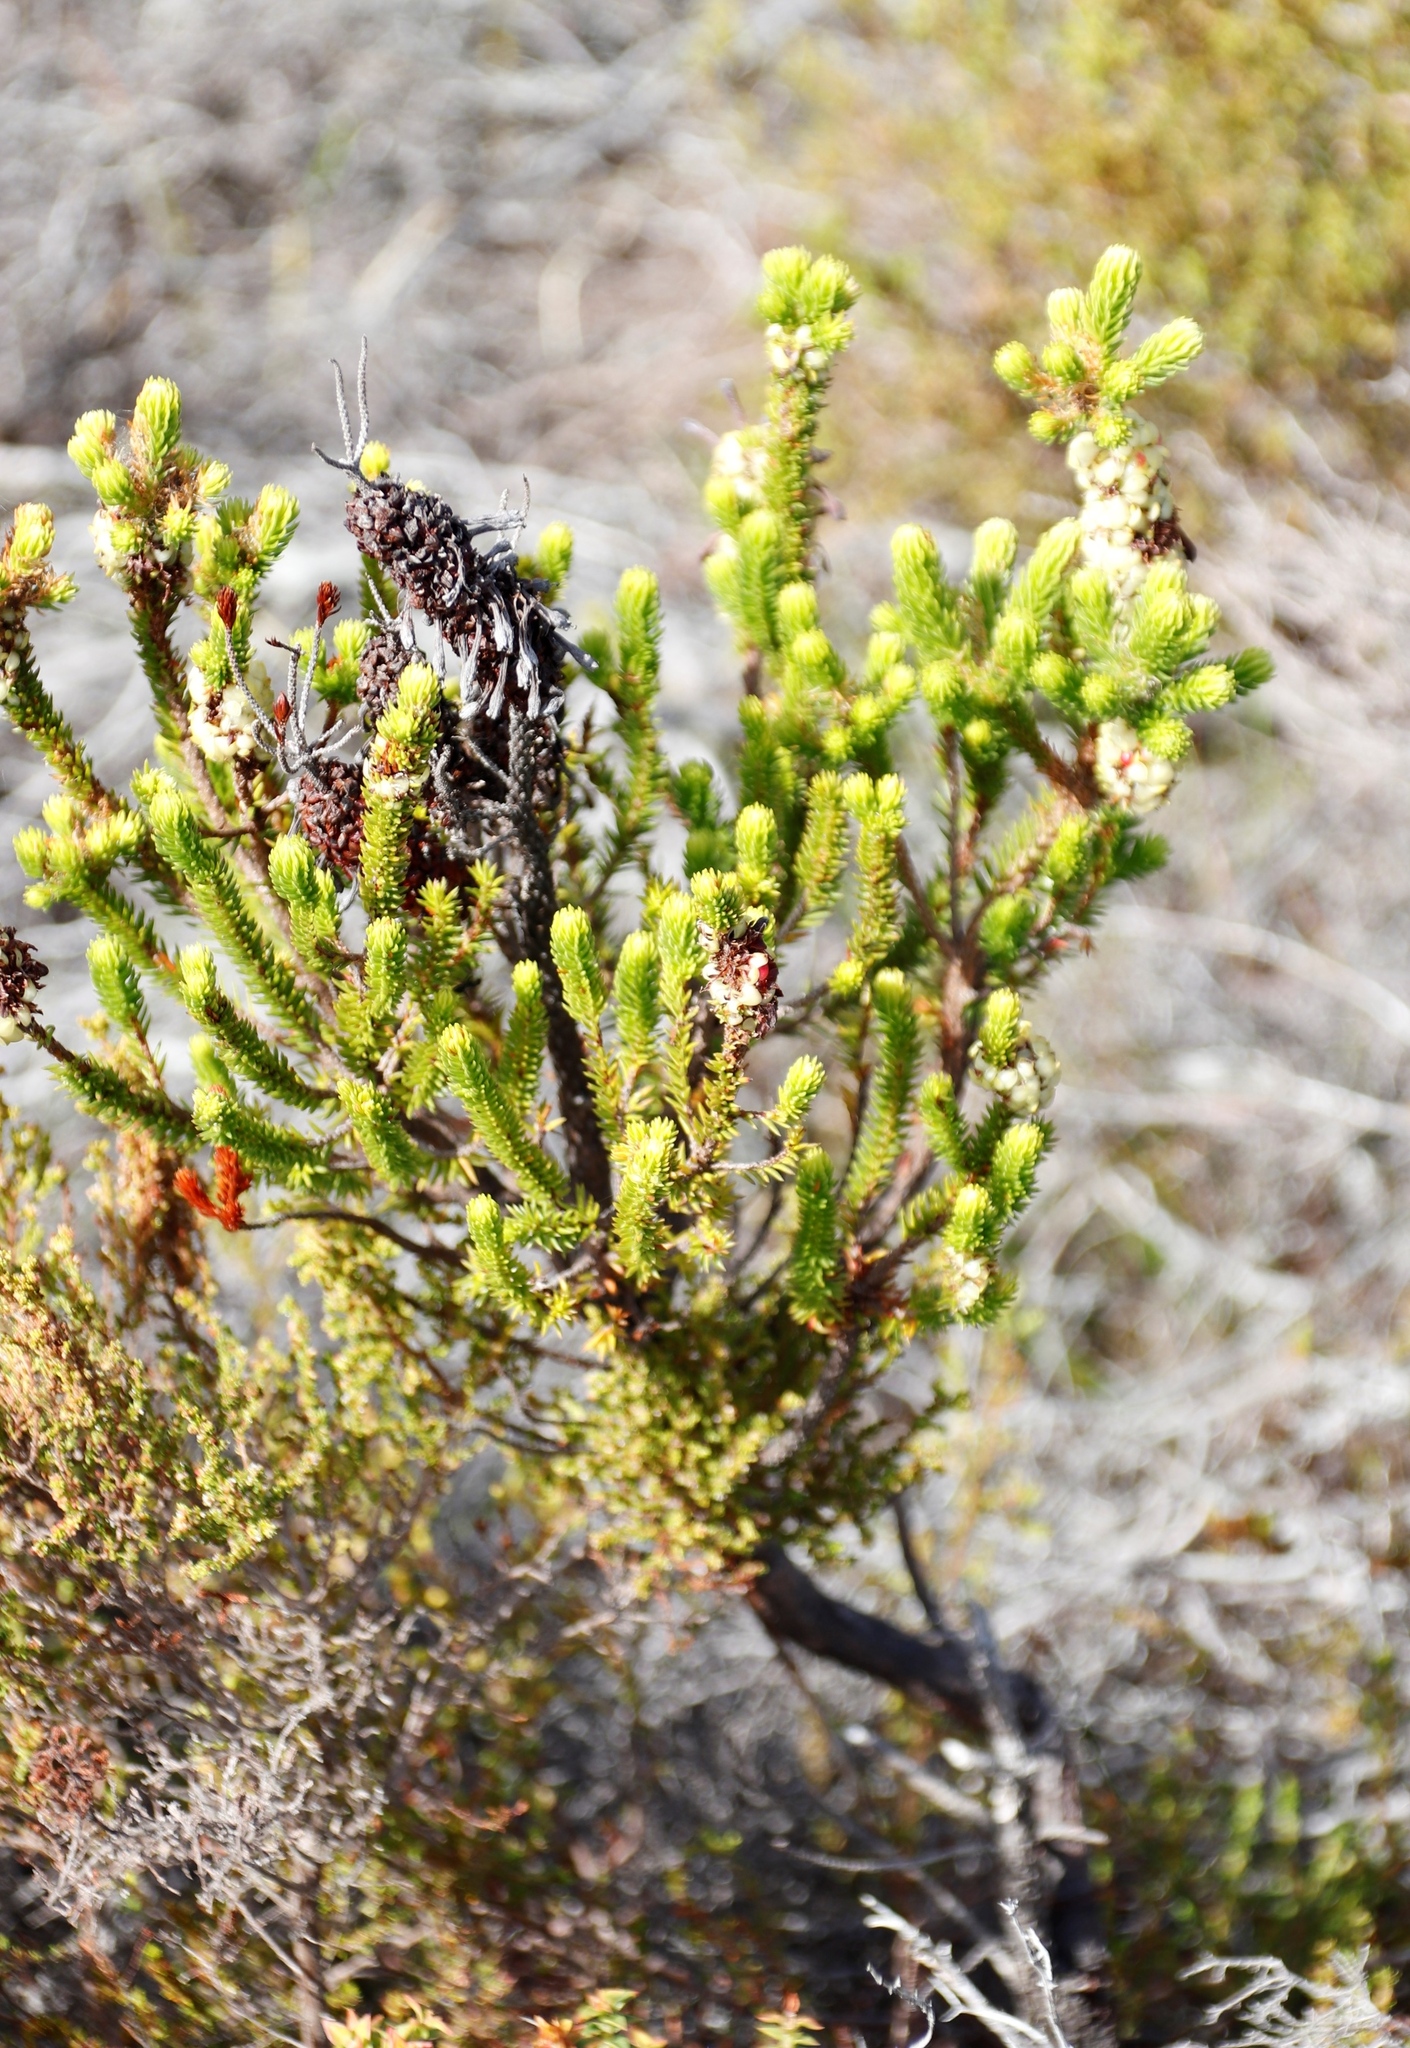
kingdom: Plantae
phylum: Tracheophyta
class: Magnoliopsida
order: Ericales
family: Ericaceae
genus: Erica
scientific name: Erica sessiliflora
